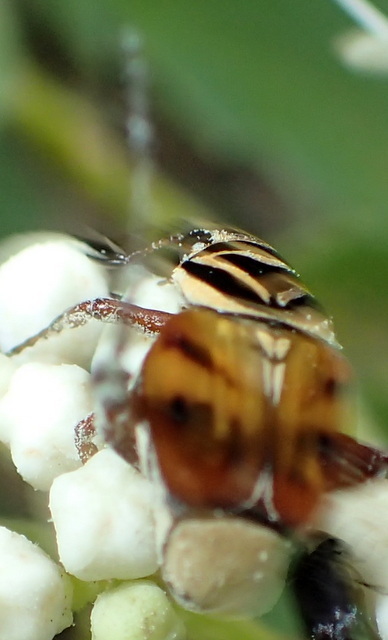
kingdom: Animalia
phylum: Arthropoda
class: Insecta
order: Coleoptera
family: Scarabaeidae
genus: Trigonopeltastes
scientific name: Trigonopeltastes delta
